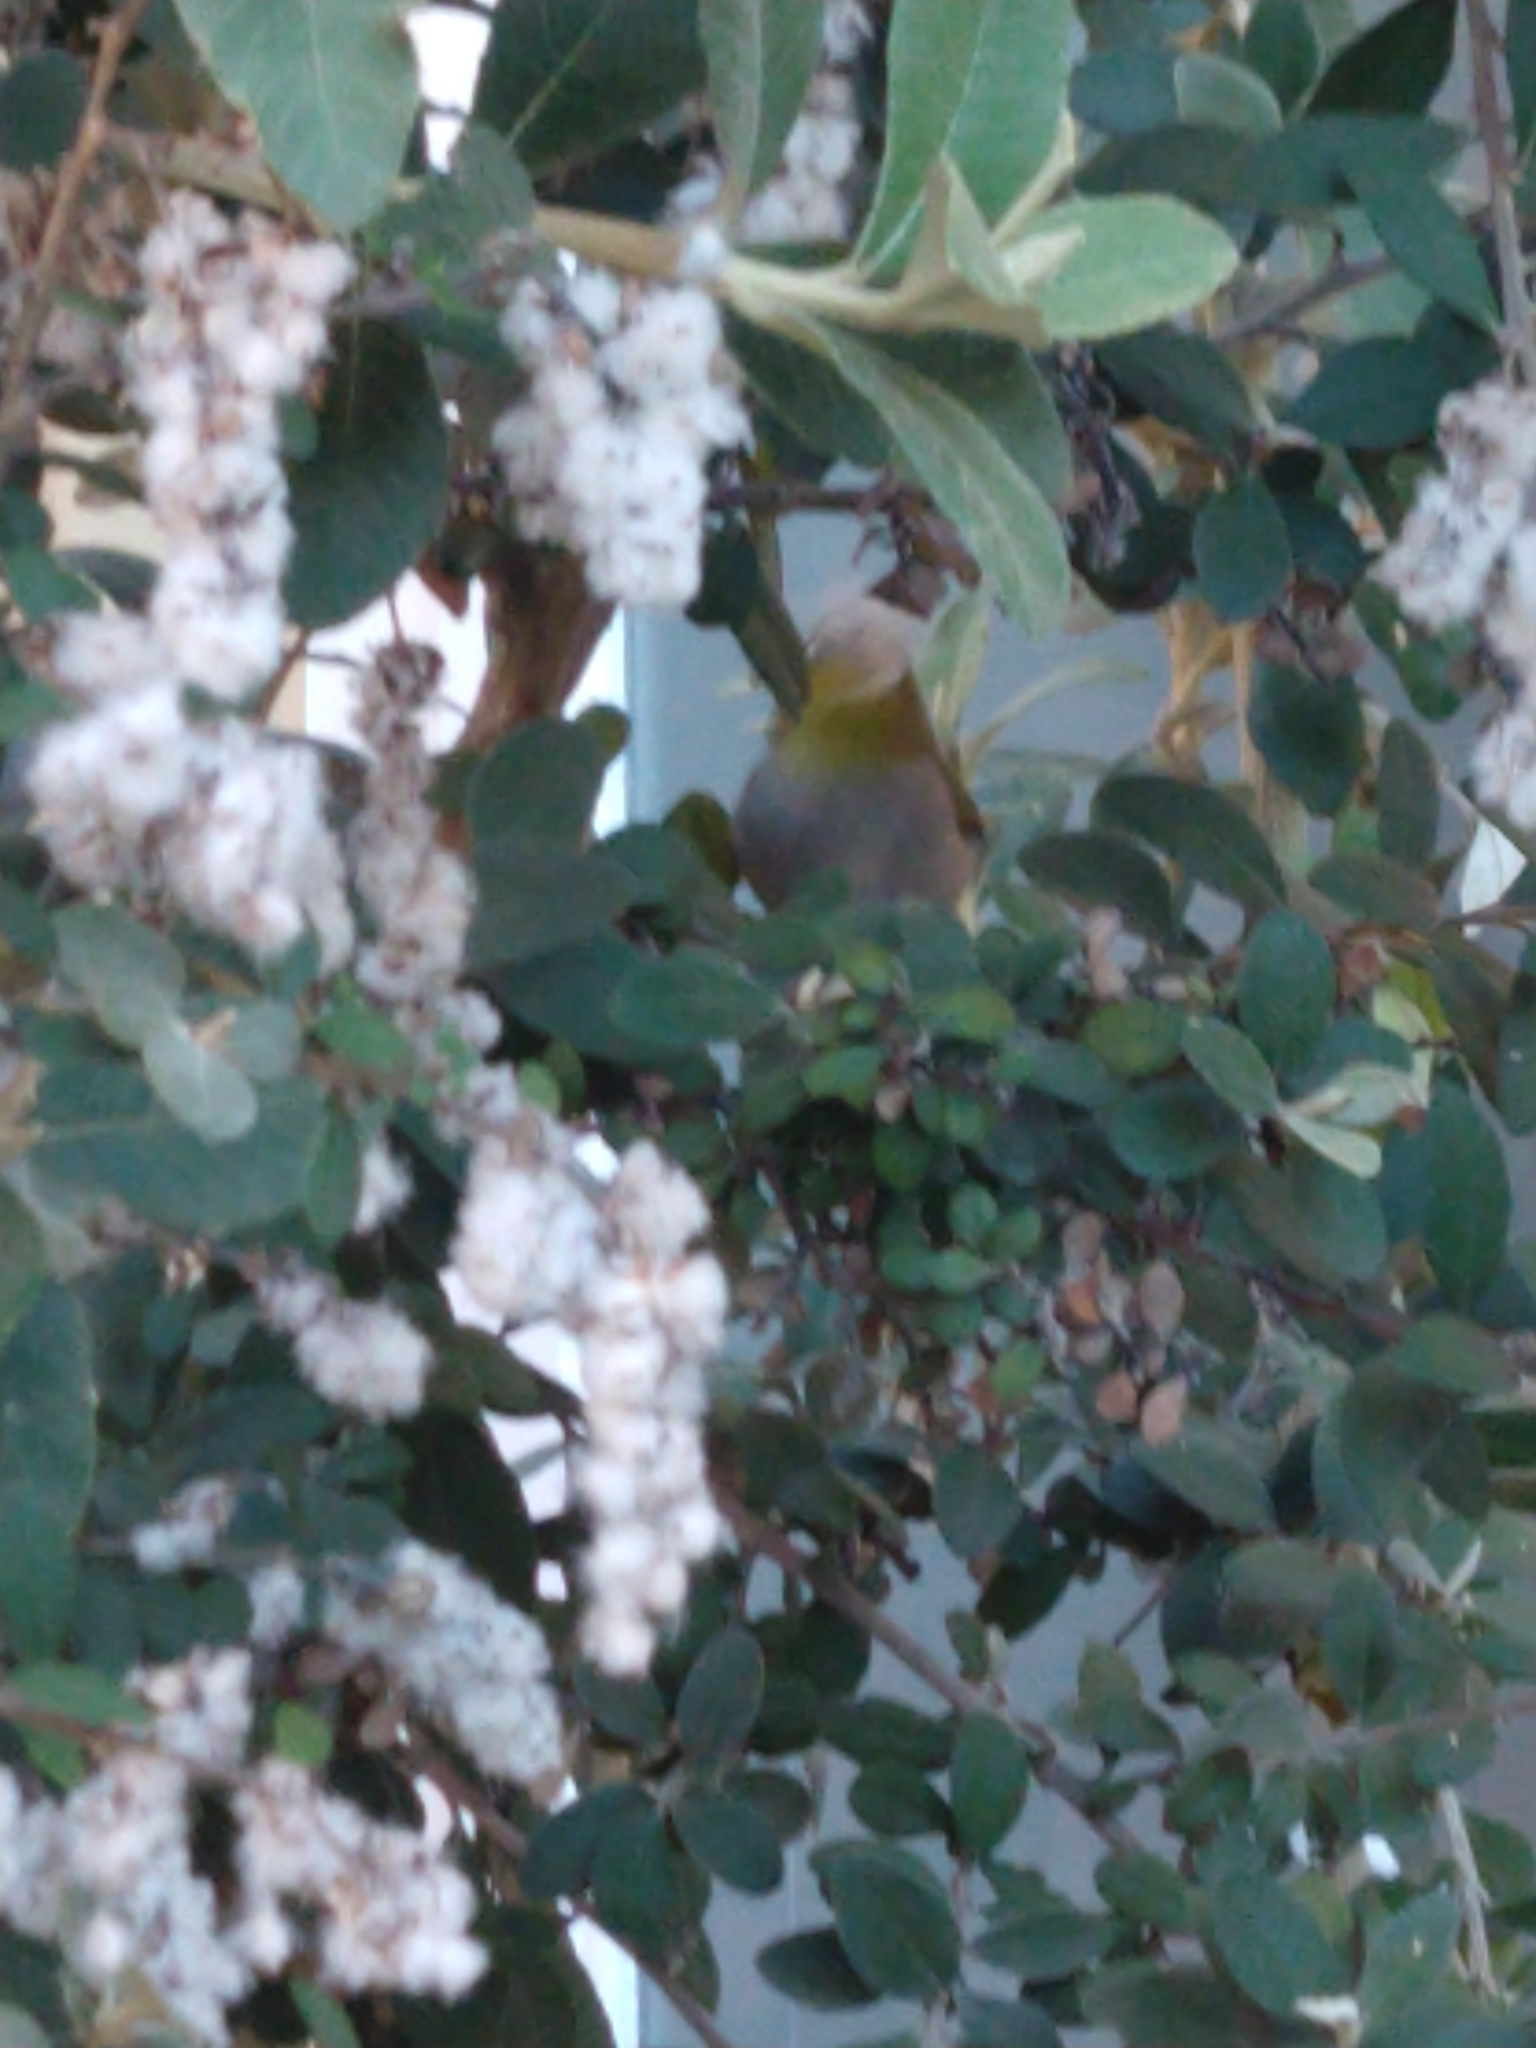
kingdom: Animalia
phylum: Chordata
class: Aves
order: Passeriformes
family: Zosteropidae
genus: Zosterops
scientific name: Zosterops virens
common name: Cape white-eye
